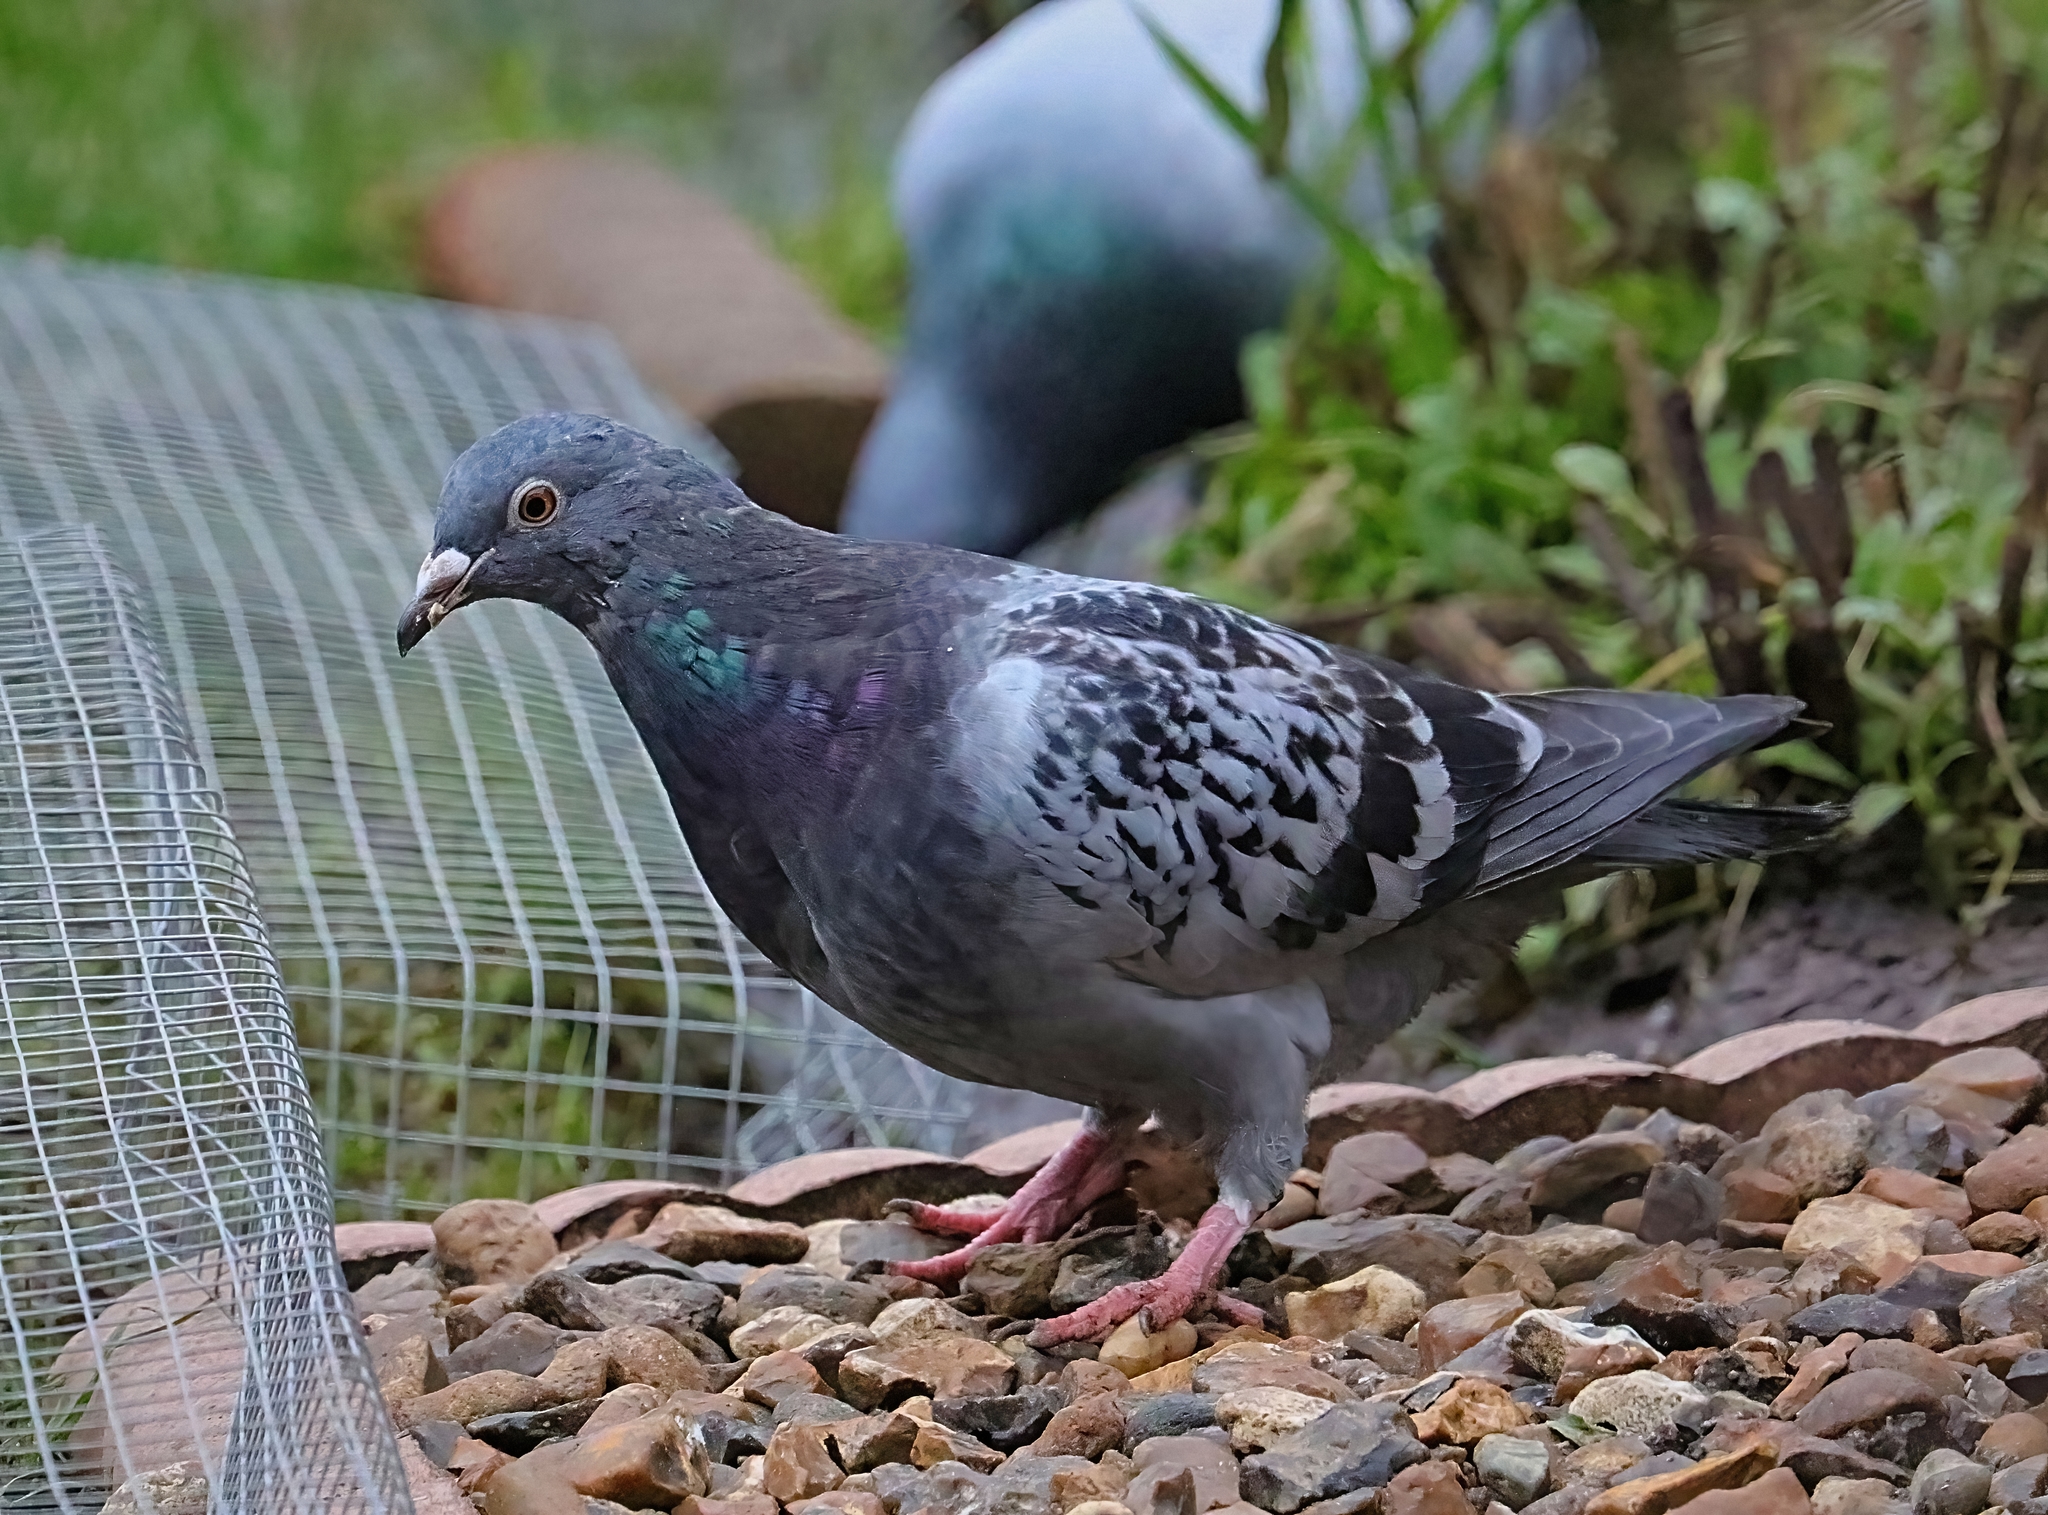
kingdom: Animalia
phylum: Chordata
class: Aves
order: Columbiformes
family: Columbidae
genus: Columba
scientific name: Columba livia
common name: Rock pigeon
